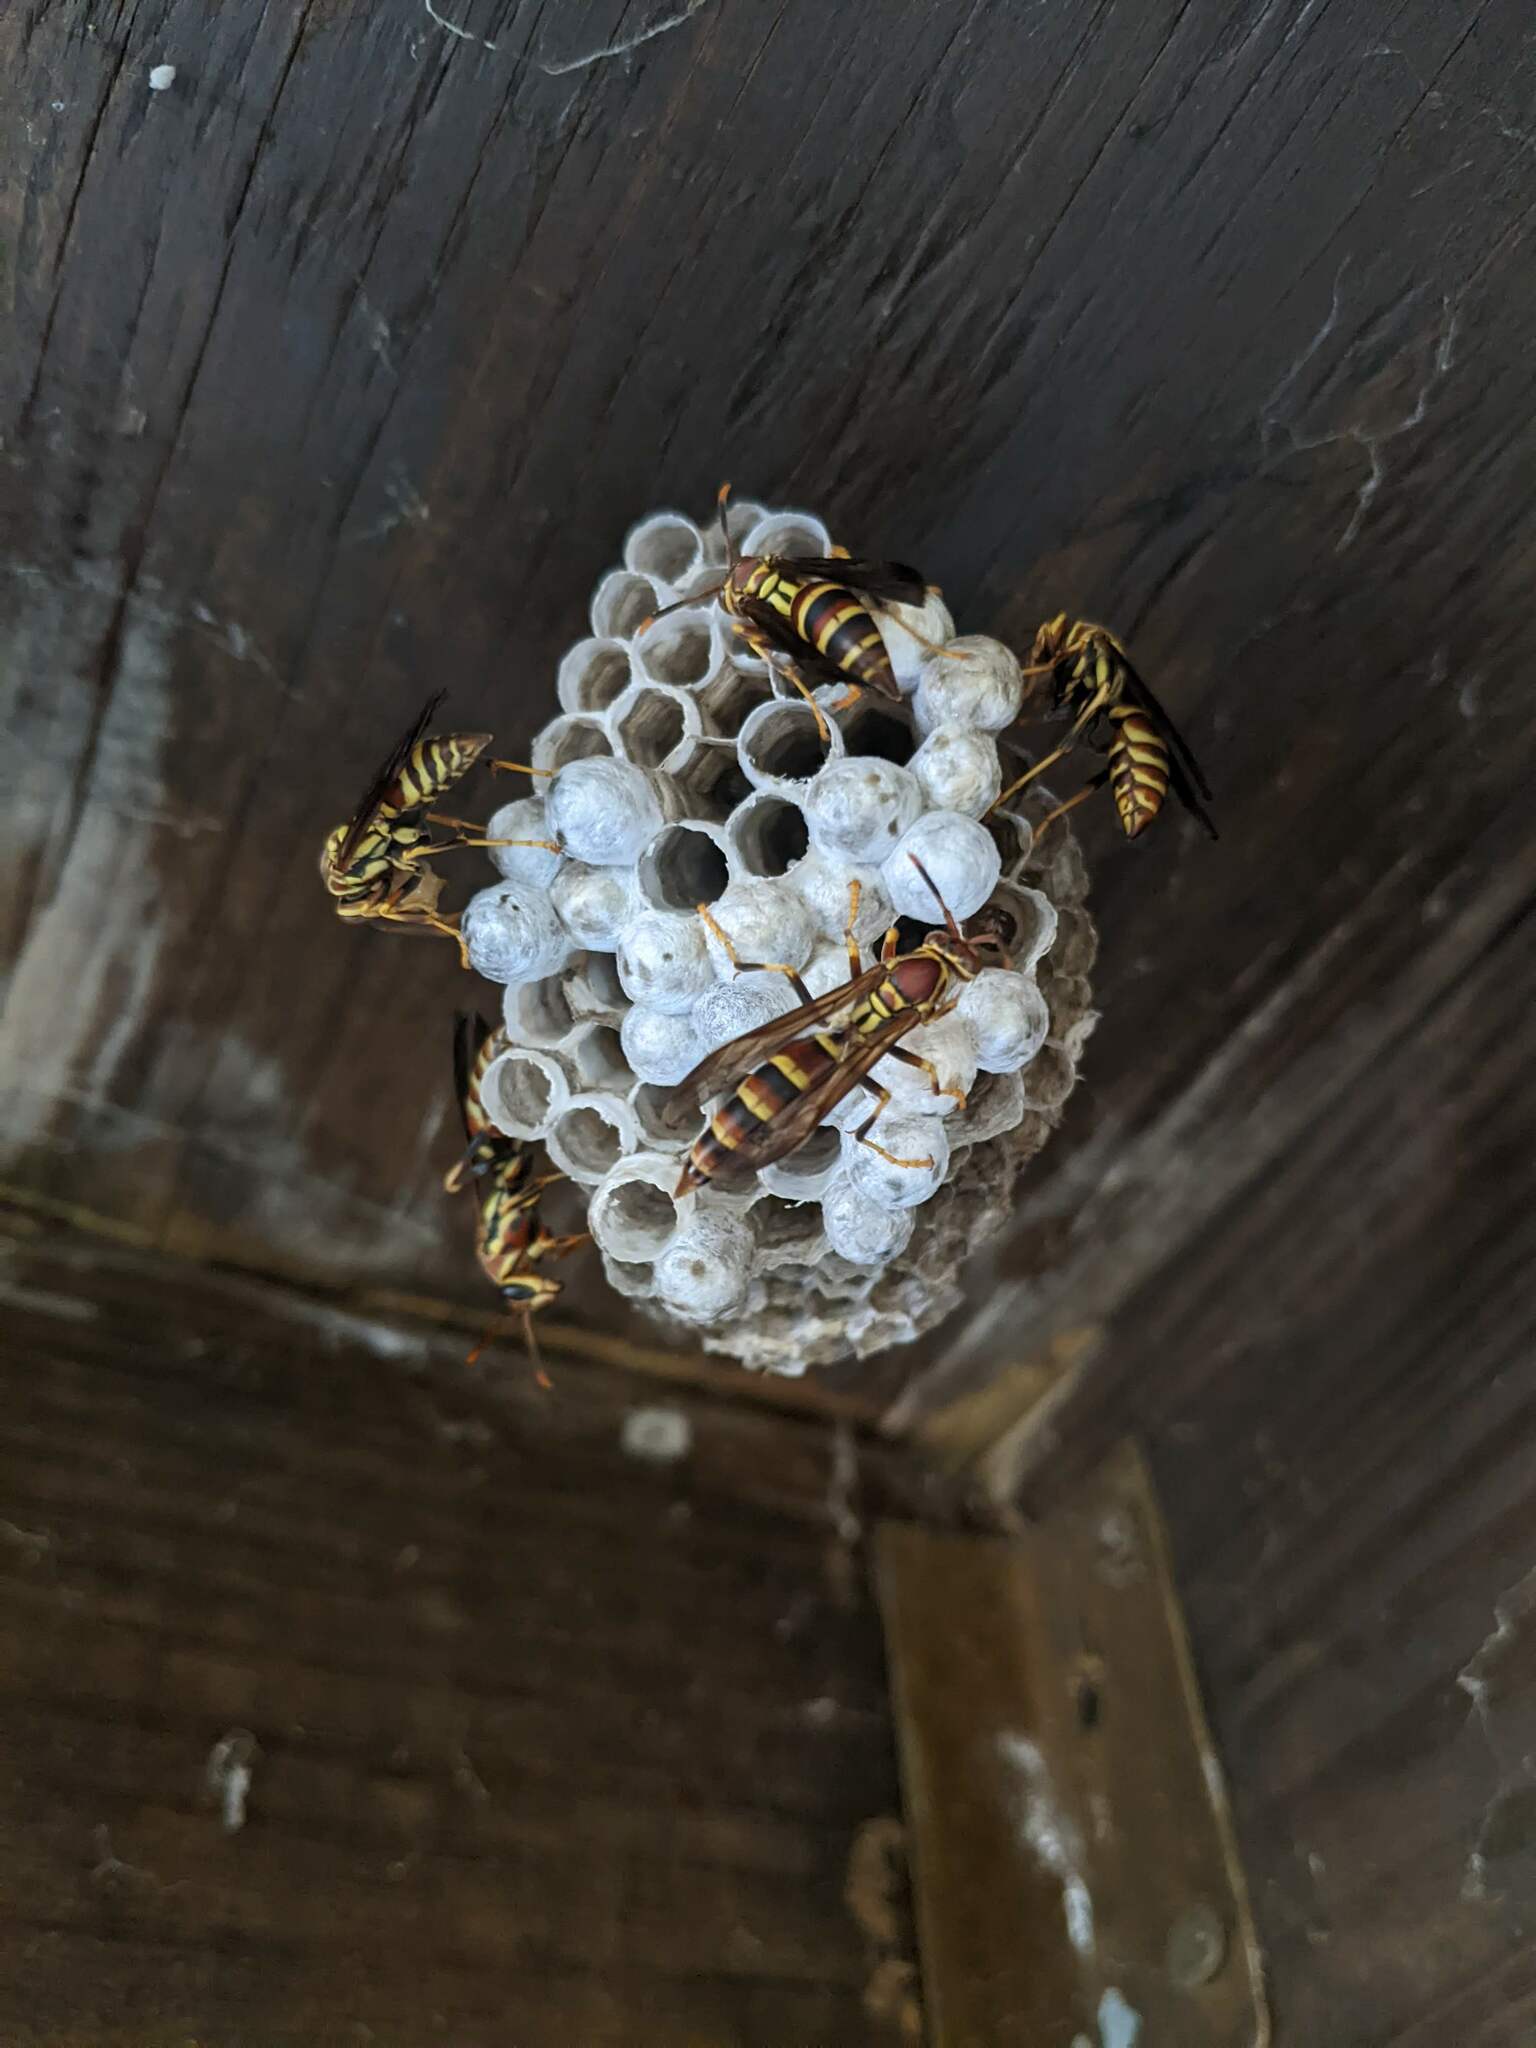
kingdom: Animalia
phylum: Arthropoda
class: Insecta
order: Hymenoptera
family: Eumenidae
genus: Polistes
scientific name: Polistes exclamans
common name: Paper wasp
